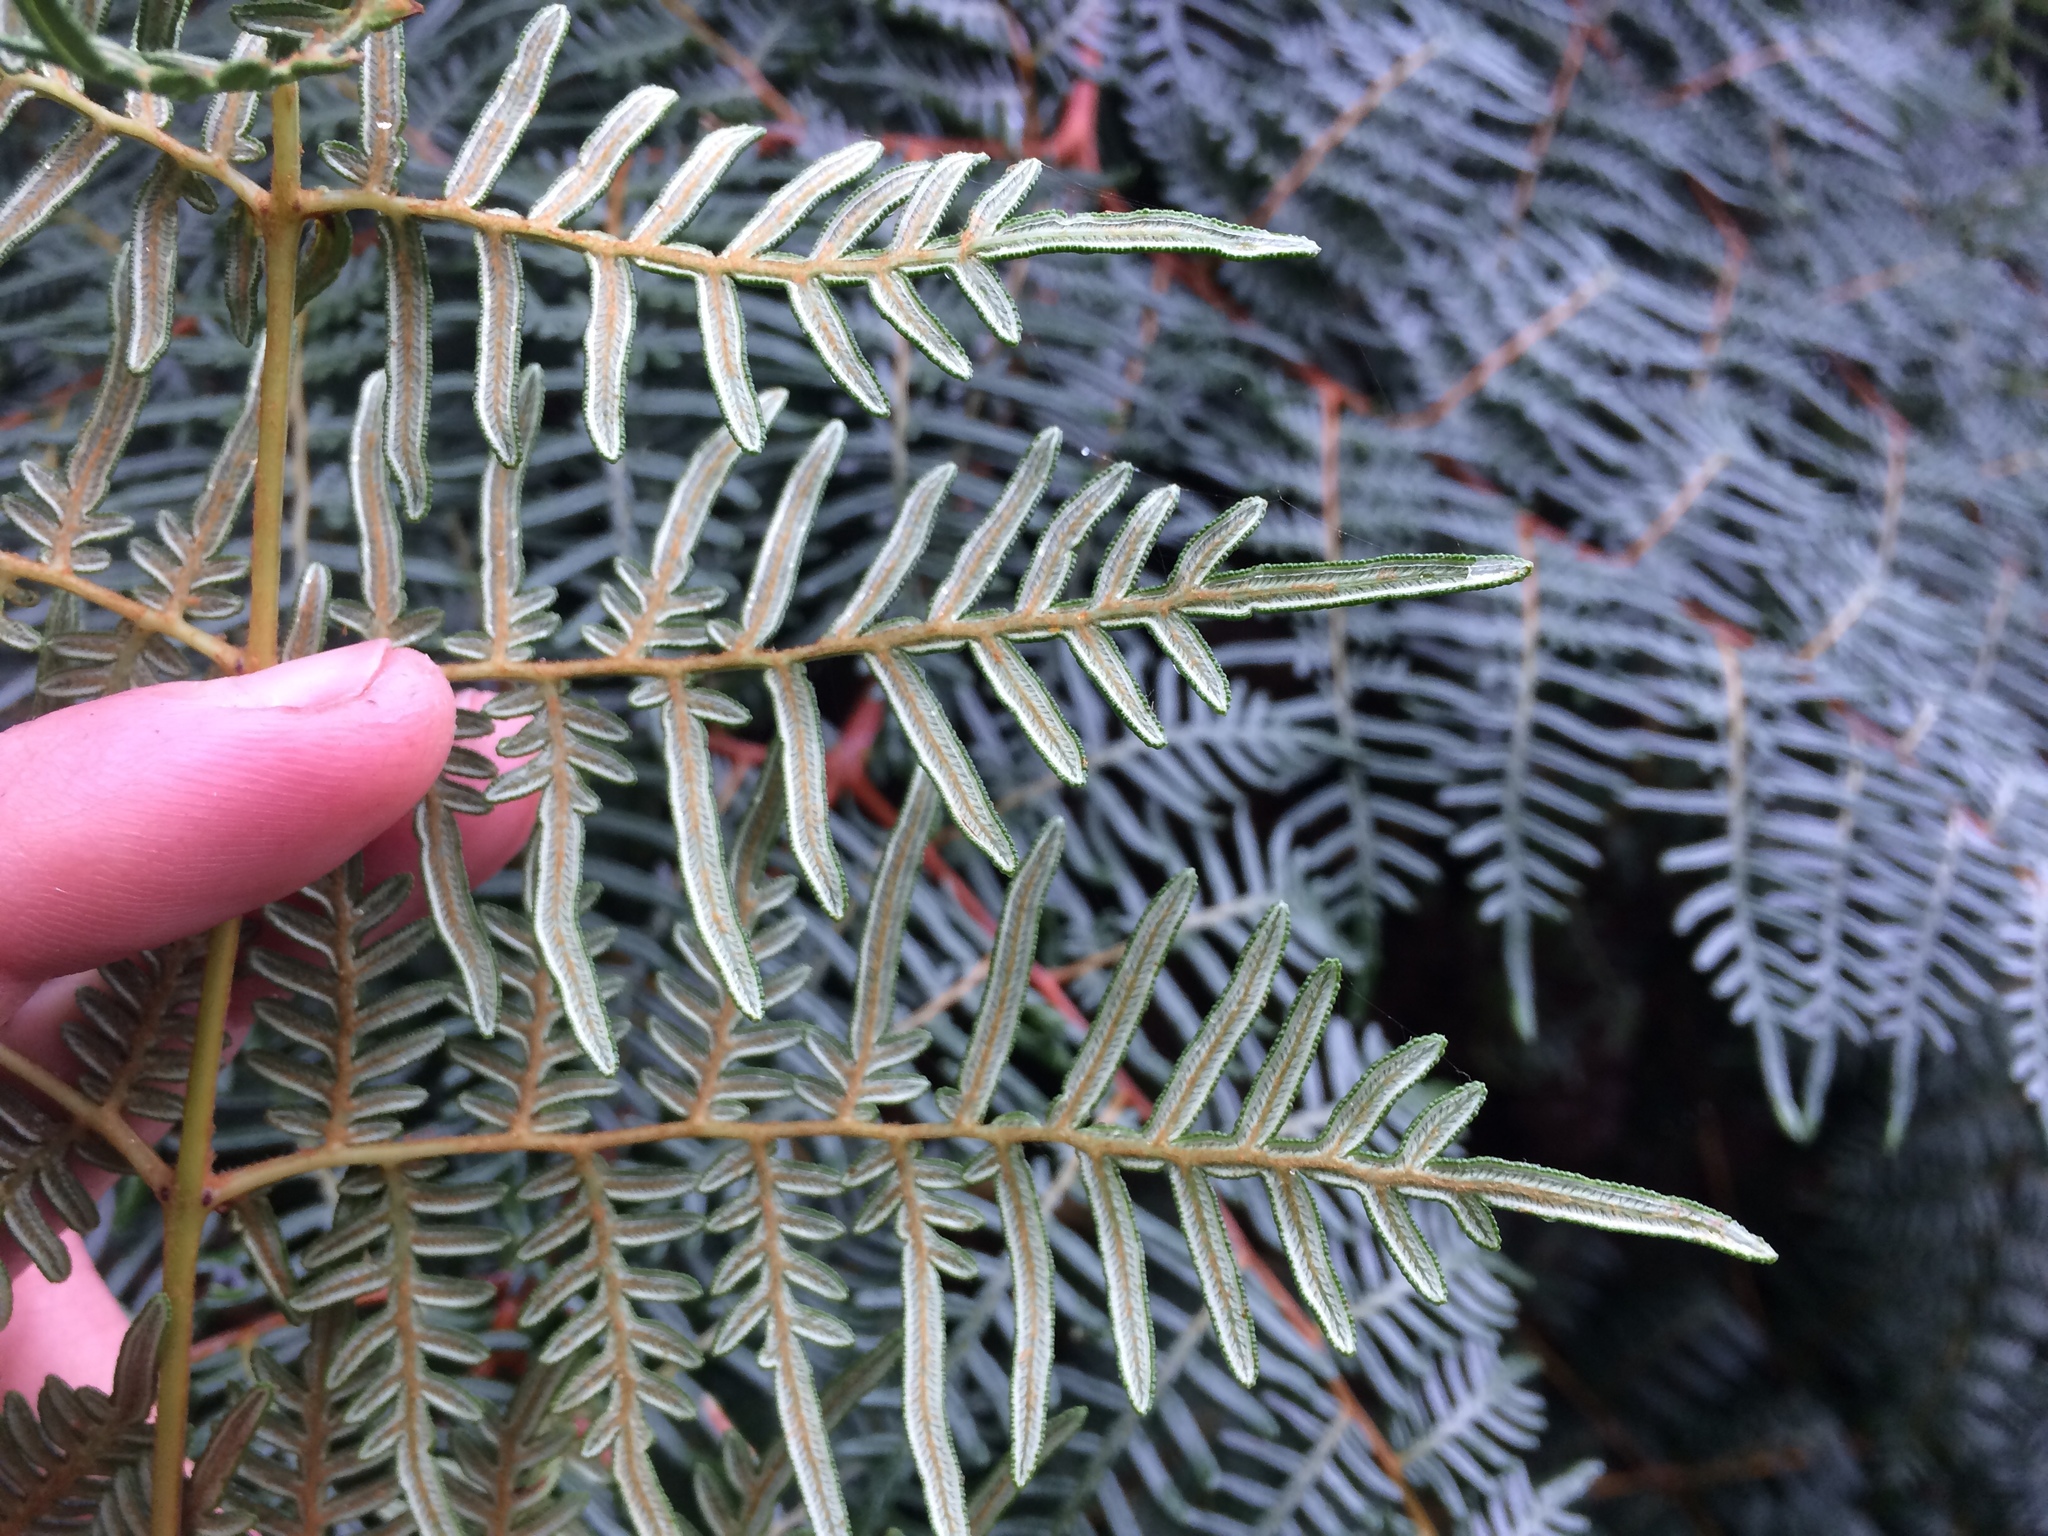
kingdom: Plantae
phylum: Tracheophyta
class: Polypodiopsida
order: Polypodiales
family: Dennstaedtiaceae
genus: Pteridium
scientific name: Pteridium esculentum
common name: Bracken fern
